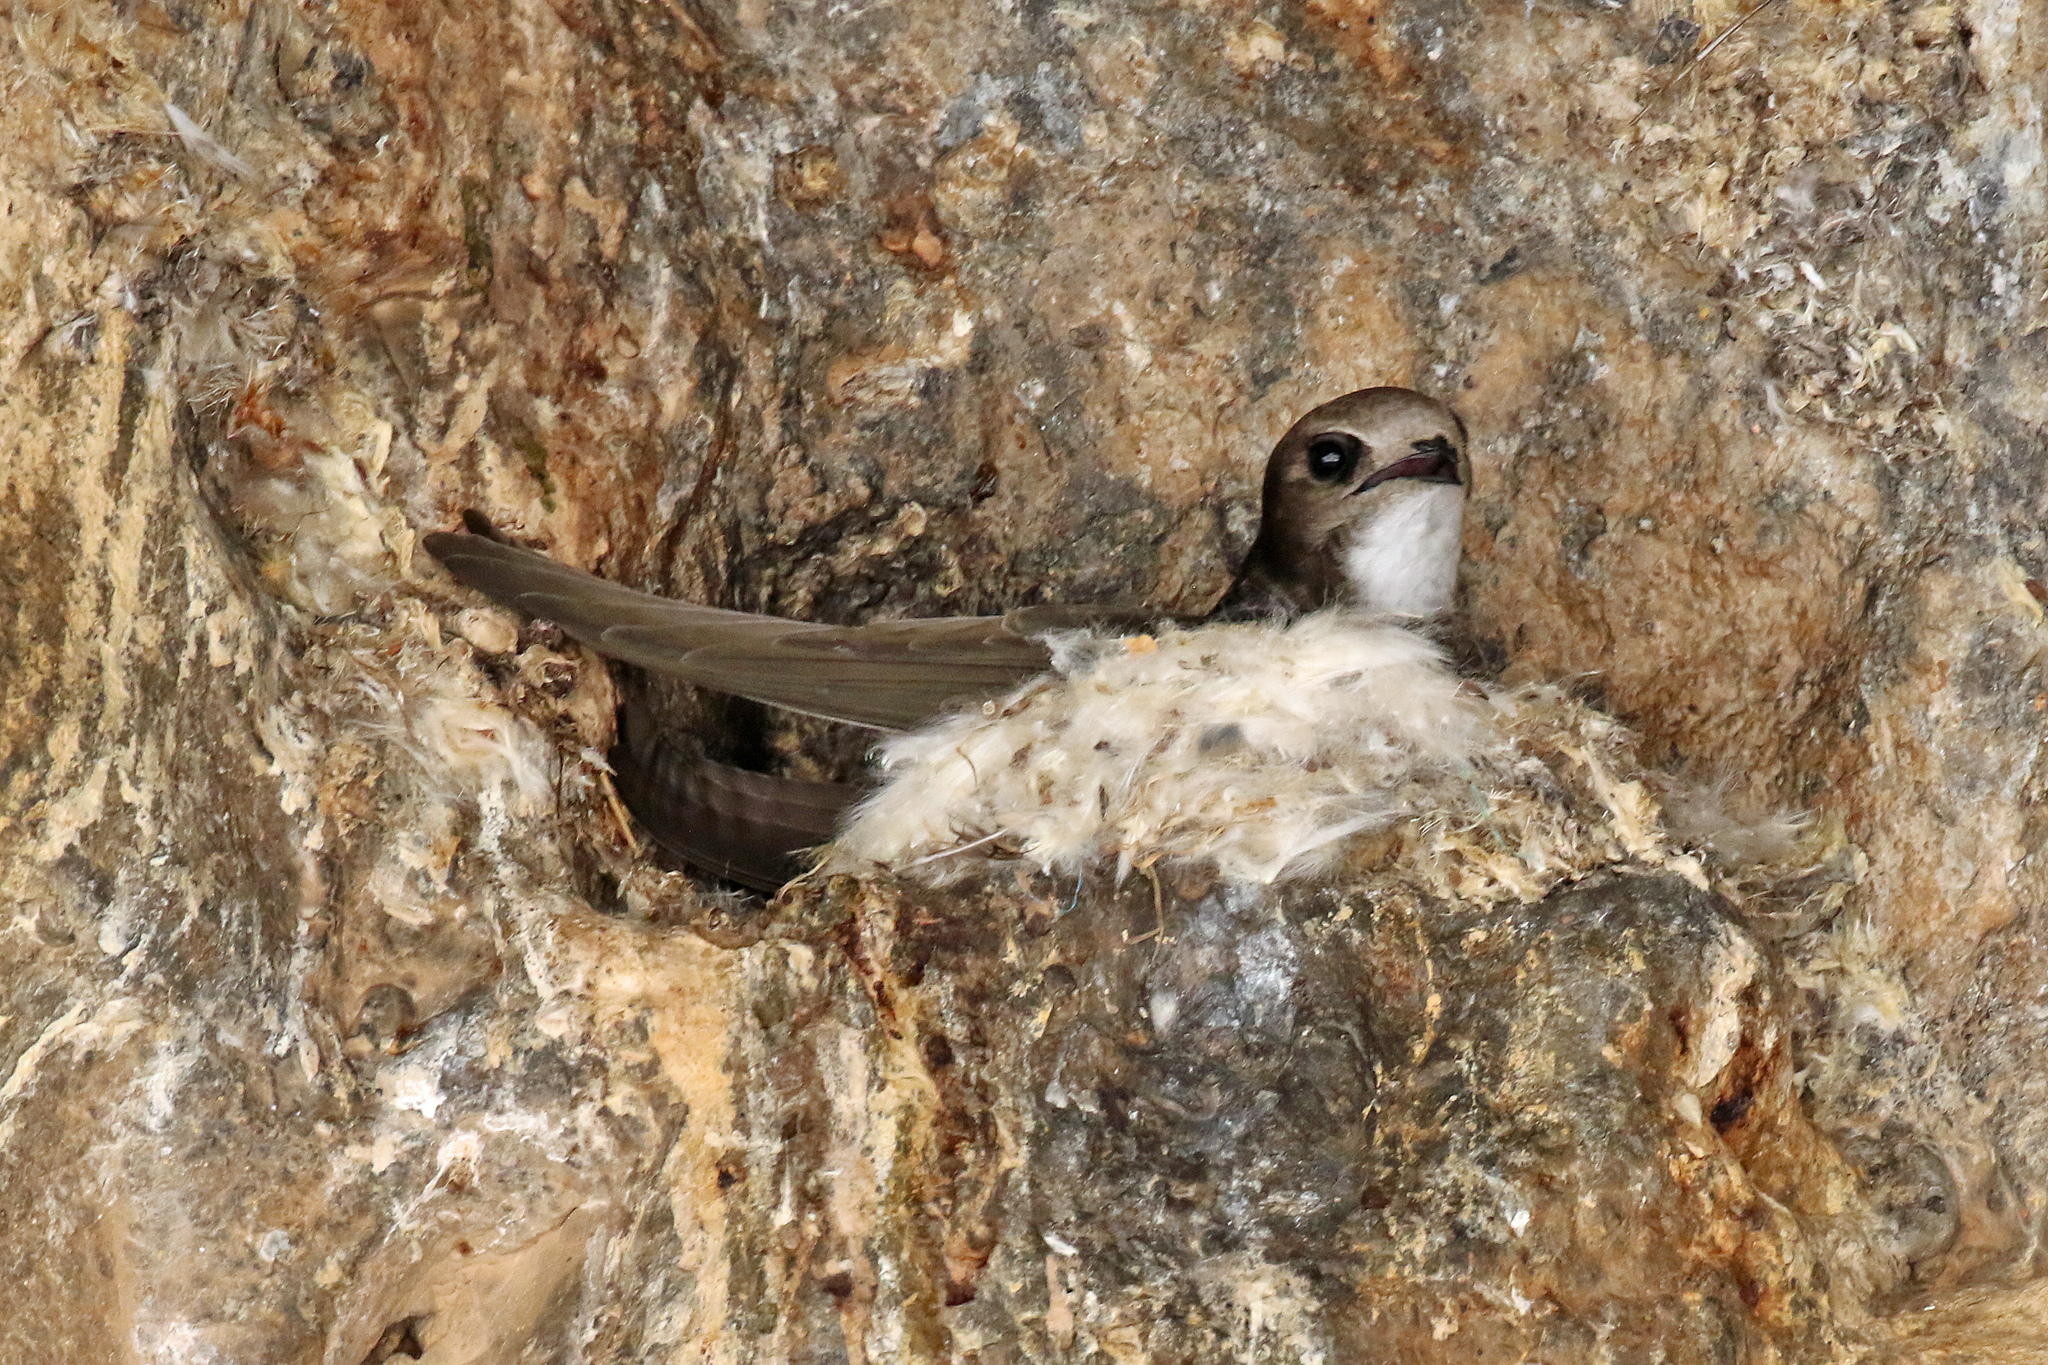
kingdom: Animalia
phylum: Chordata
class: Aves
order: Apodiformes
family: Apodidae
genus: Tachymarptis
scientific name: Tachymarptis melba
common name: Alpine swift
